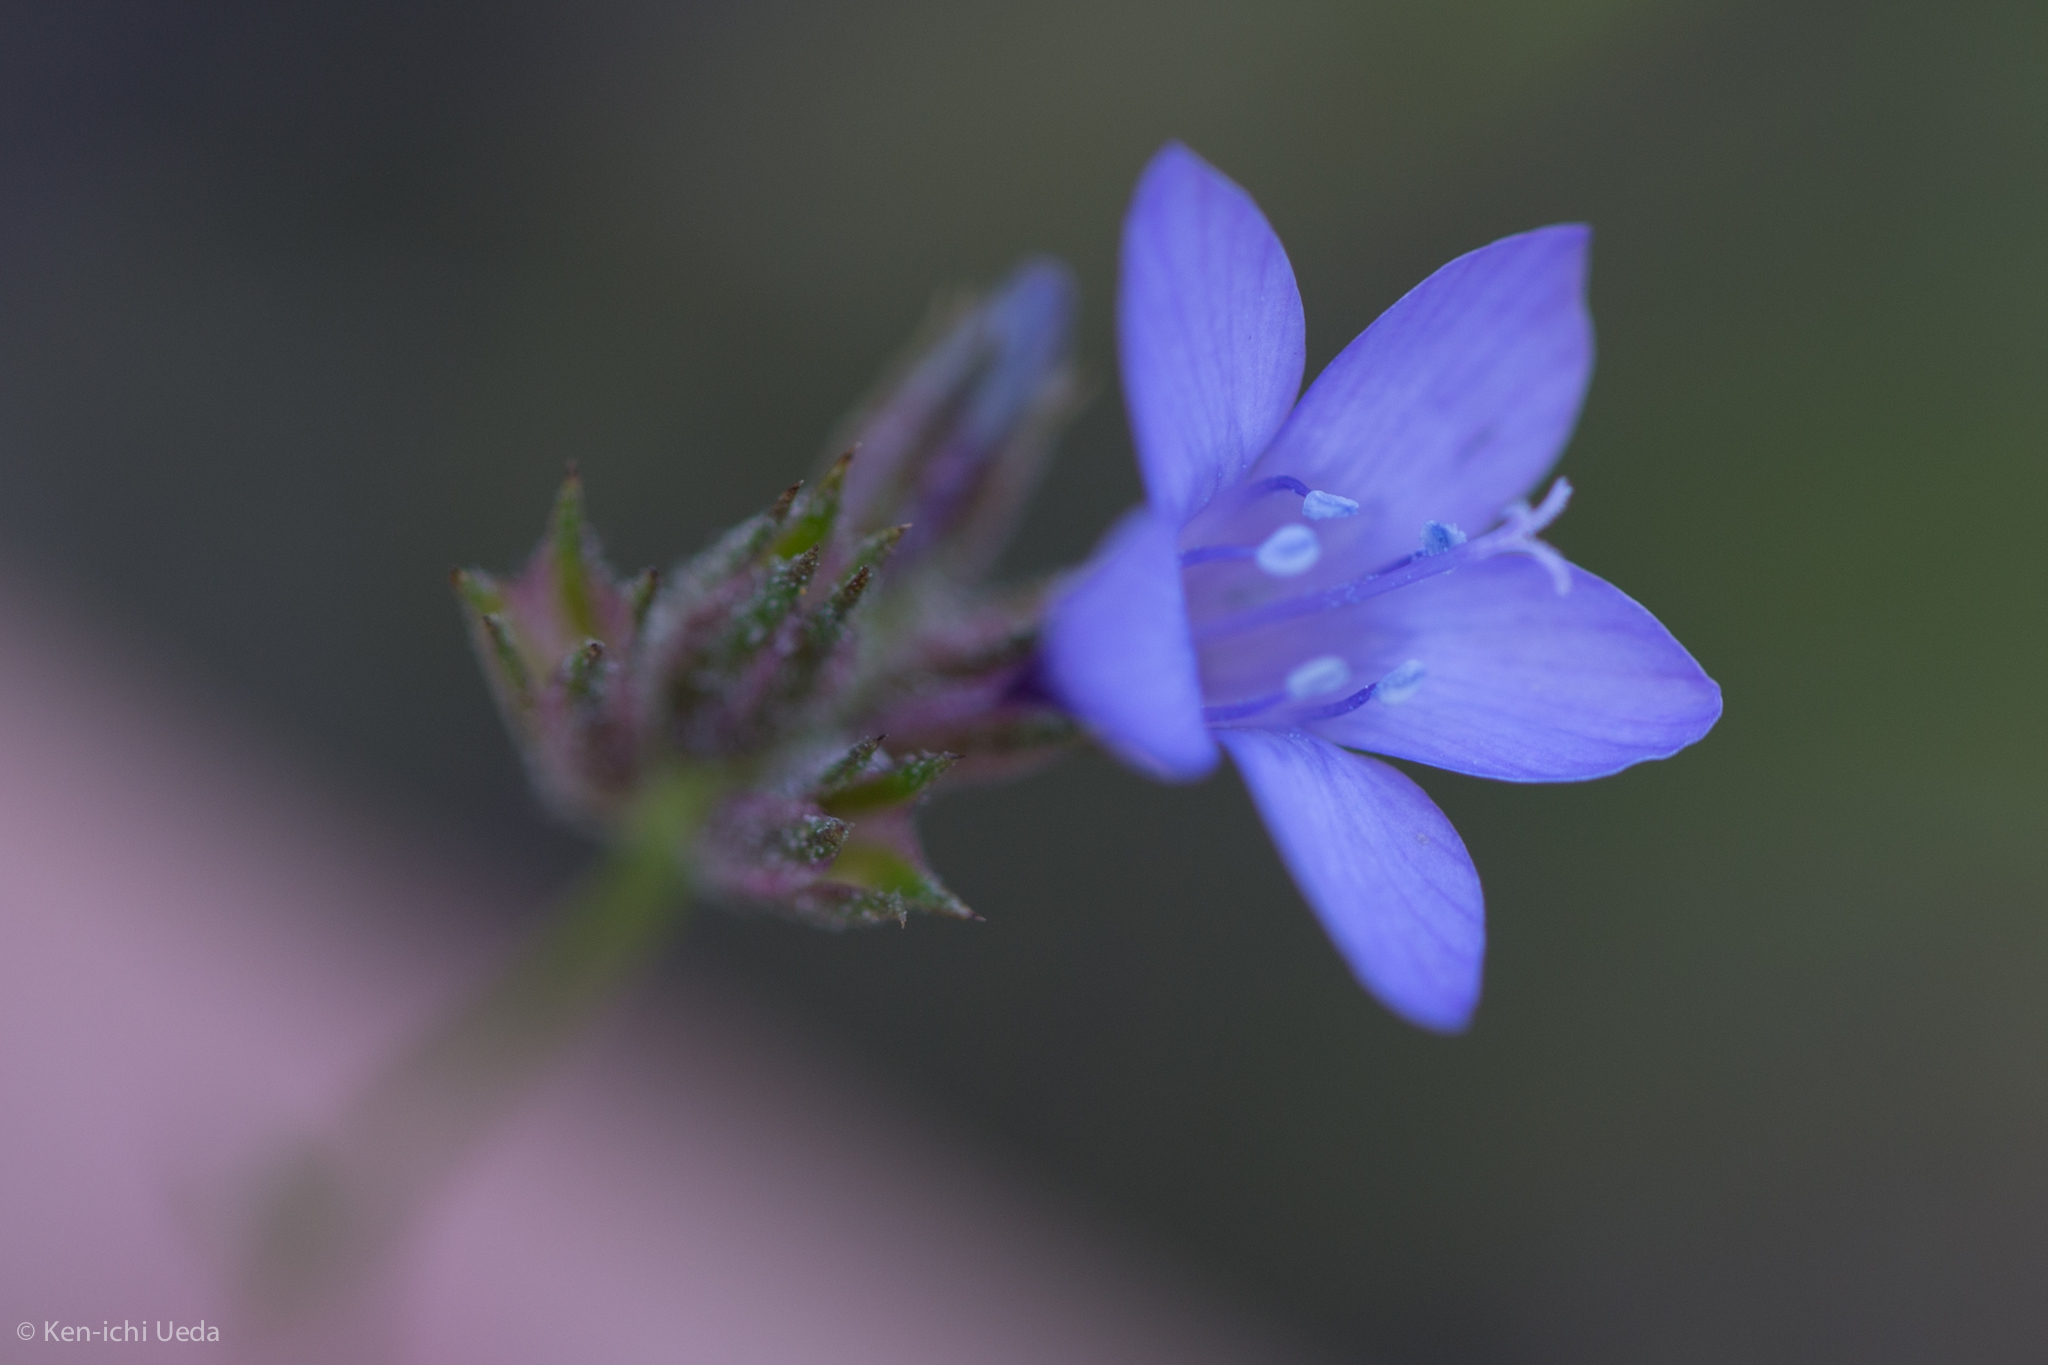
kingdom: Plantae
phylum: Tracheophyta
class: Magnoliopsida
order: Ericales
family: Polemoniaceae
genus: Gilia
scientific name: Gilia achilleifolia
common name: California gily-flower
